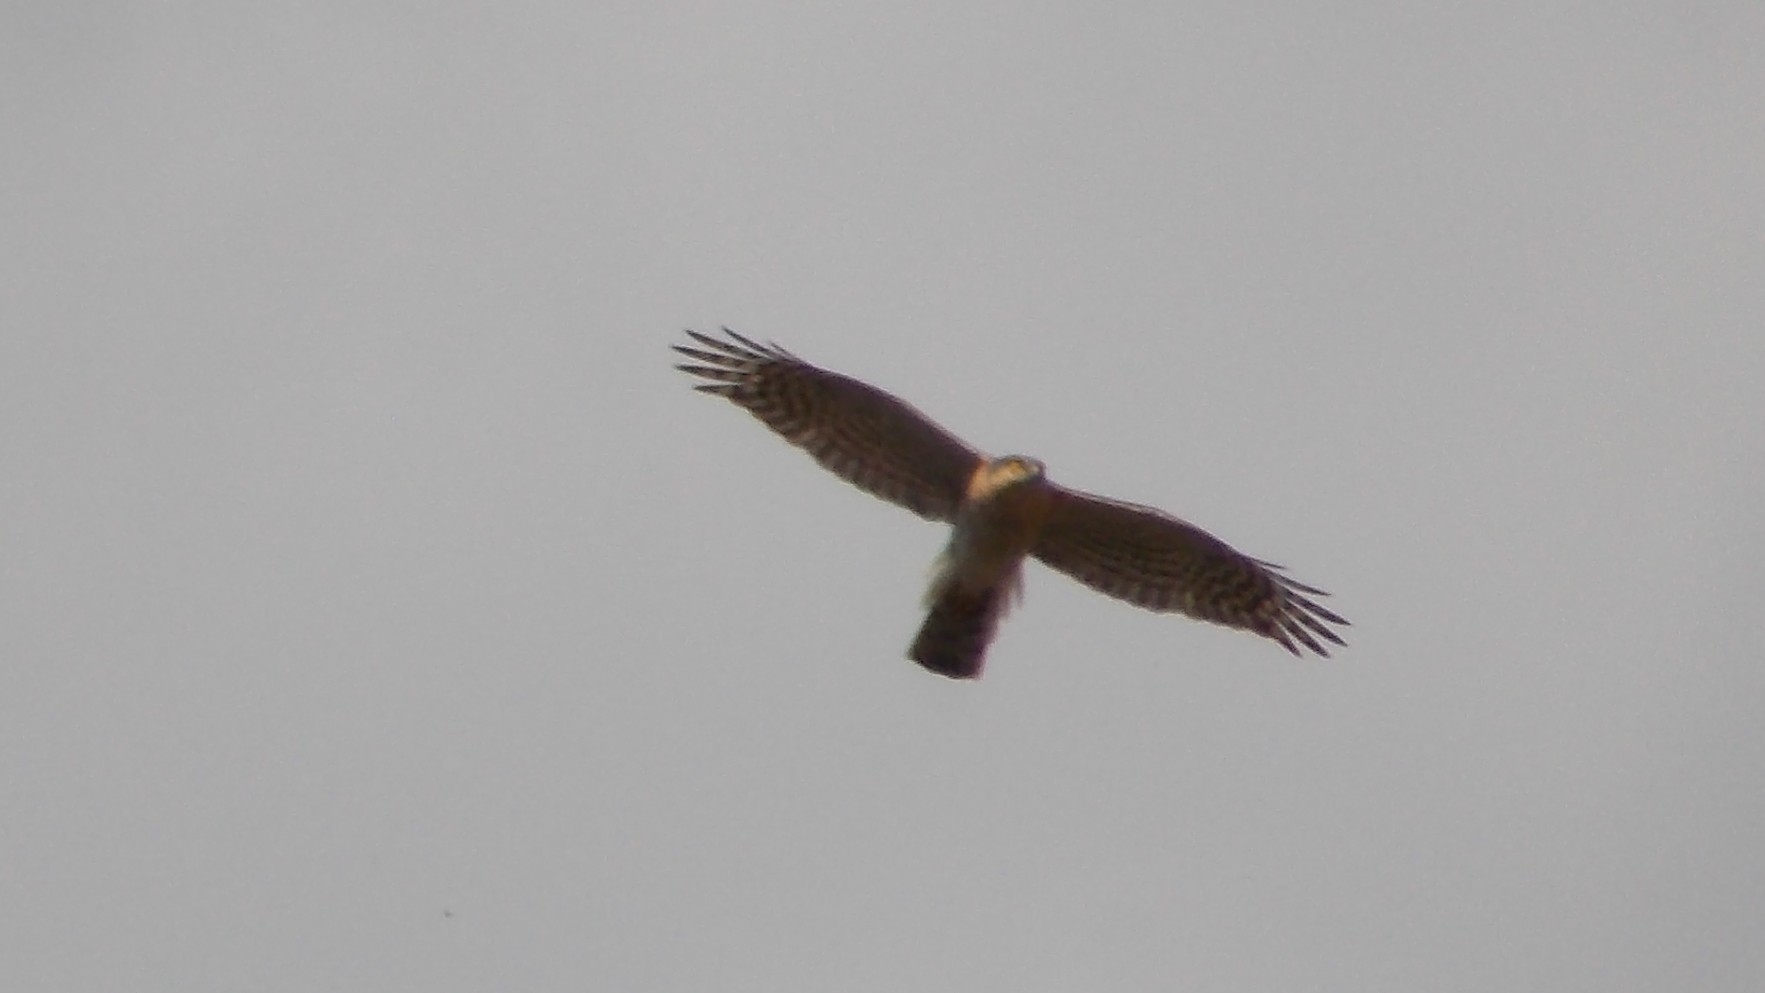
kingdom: Animalia
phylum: Chordata
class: Aves
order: Accipitriformes
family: Accipitridae
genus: Accipiter
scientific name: Accipiter nisus
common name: Eurasian sparrowhawk
